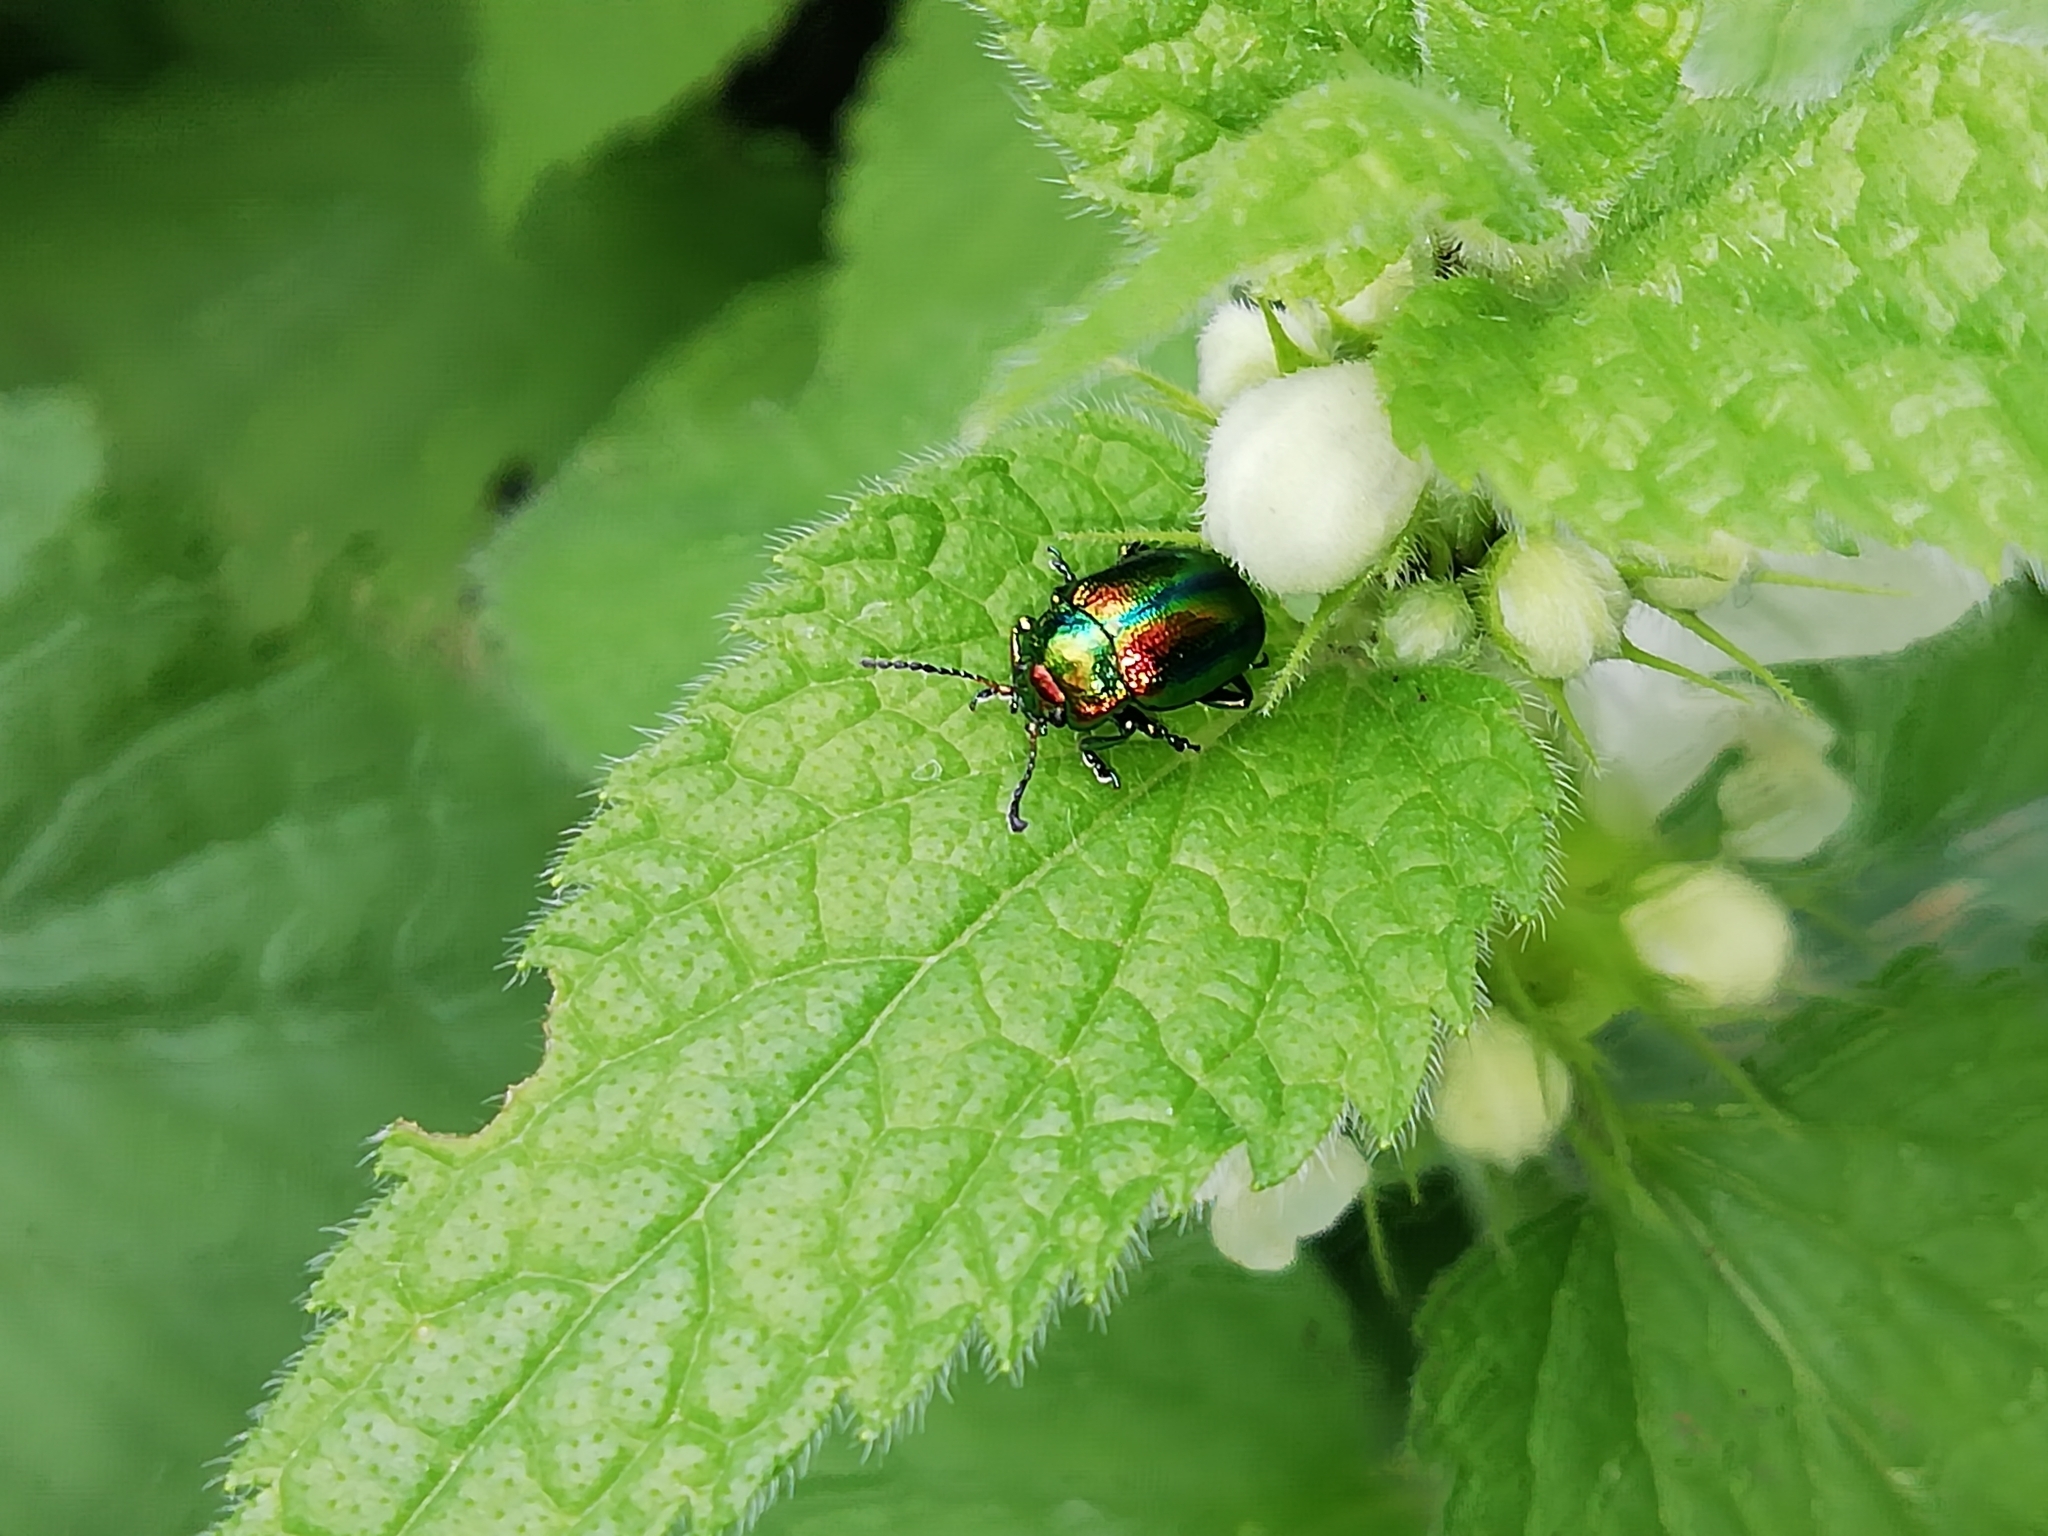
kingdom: Animalia
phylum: Arthropoda
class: Insecta
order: Coleoptera
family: Chrysomelidae
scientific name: Chrysomelidae
